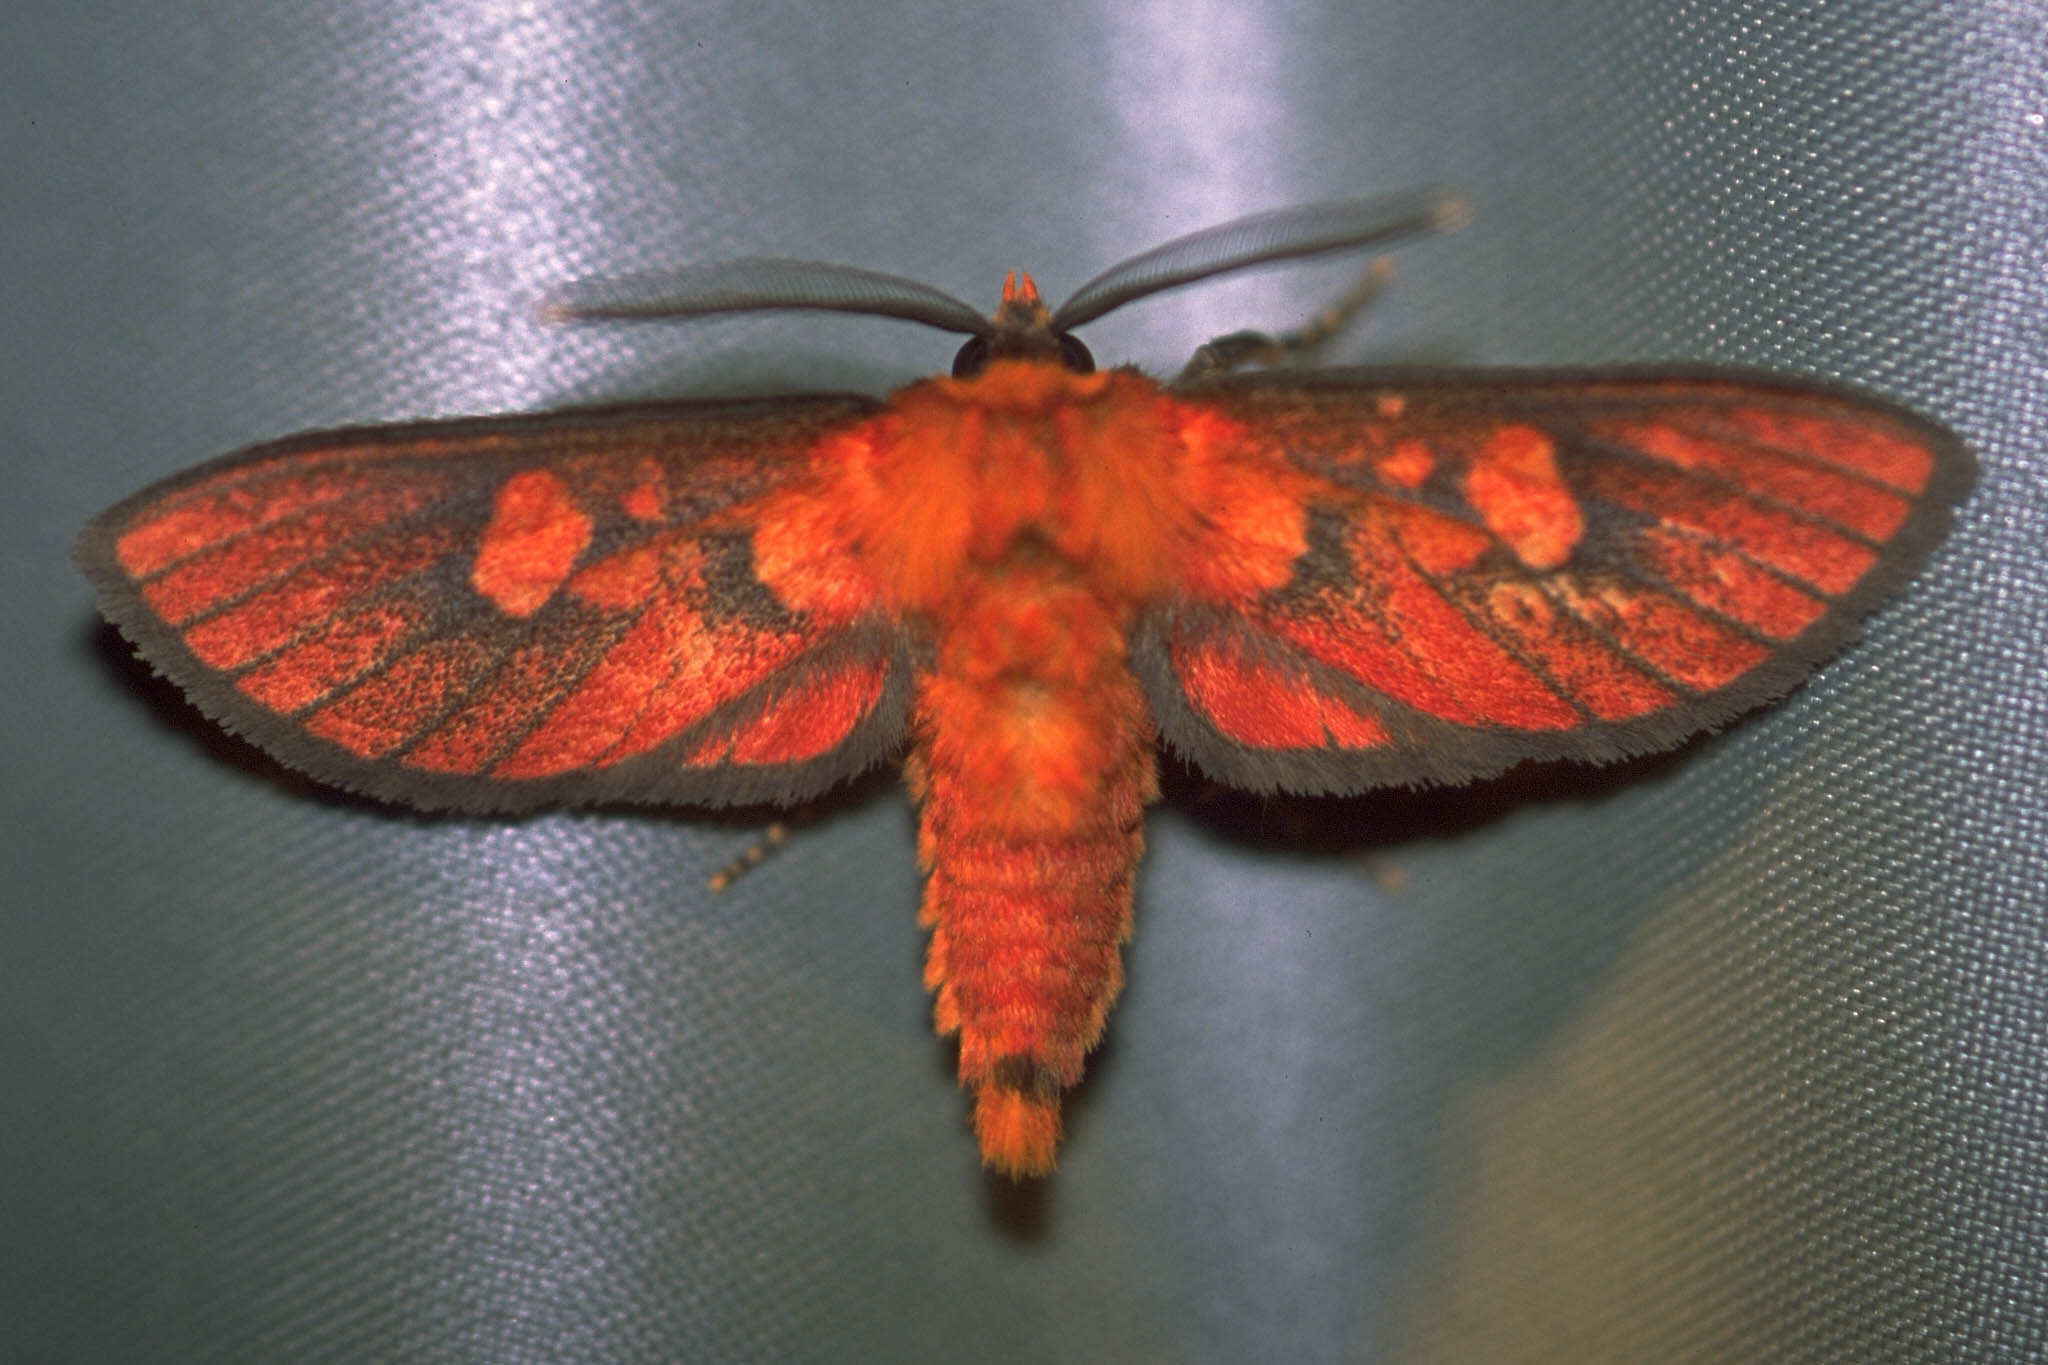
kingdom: Animalia
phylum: Arthropoda
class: Insecta
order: Lepidoptera
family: Erebidae
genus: Automolis
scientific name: Automolis nigriceps
